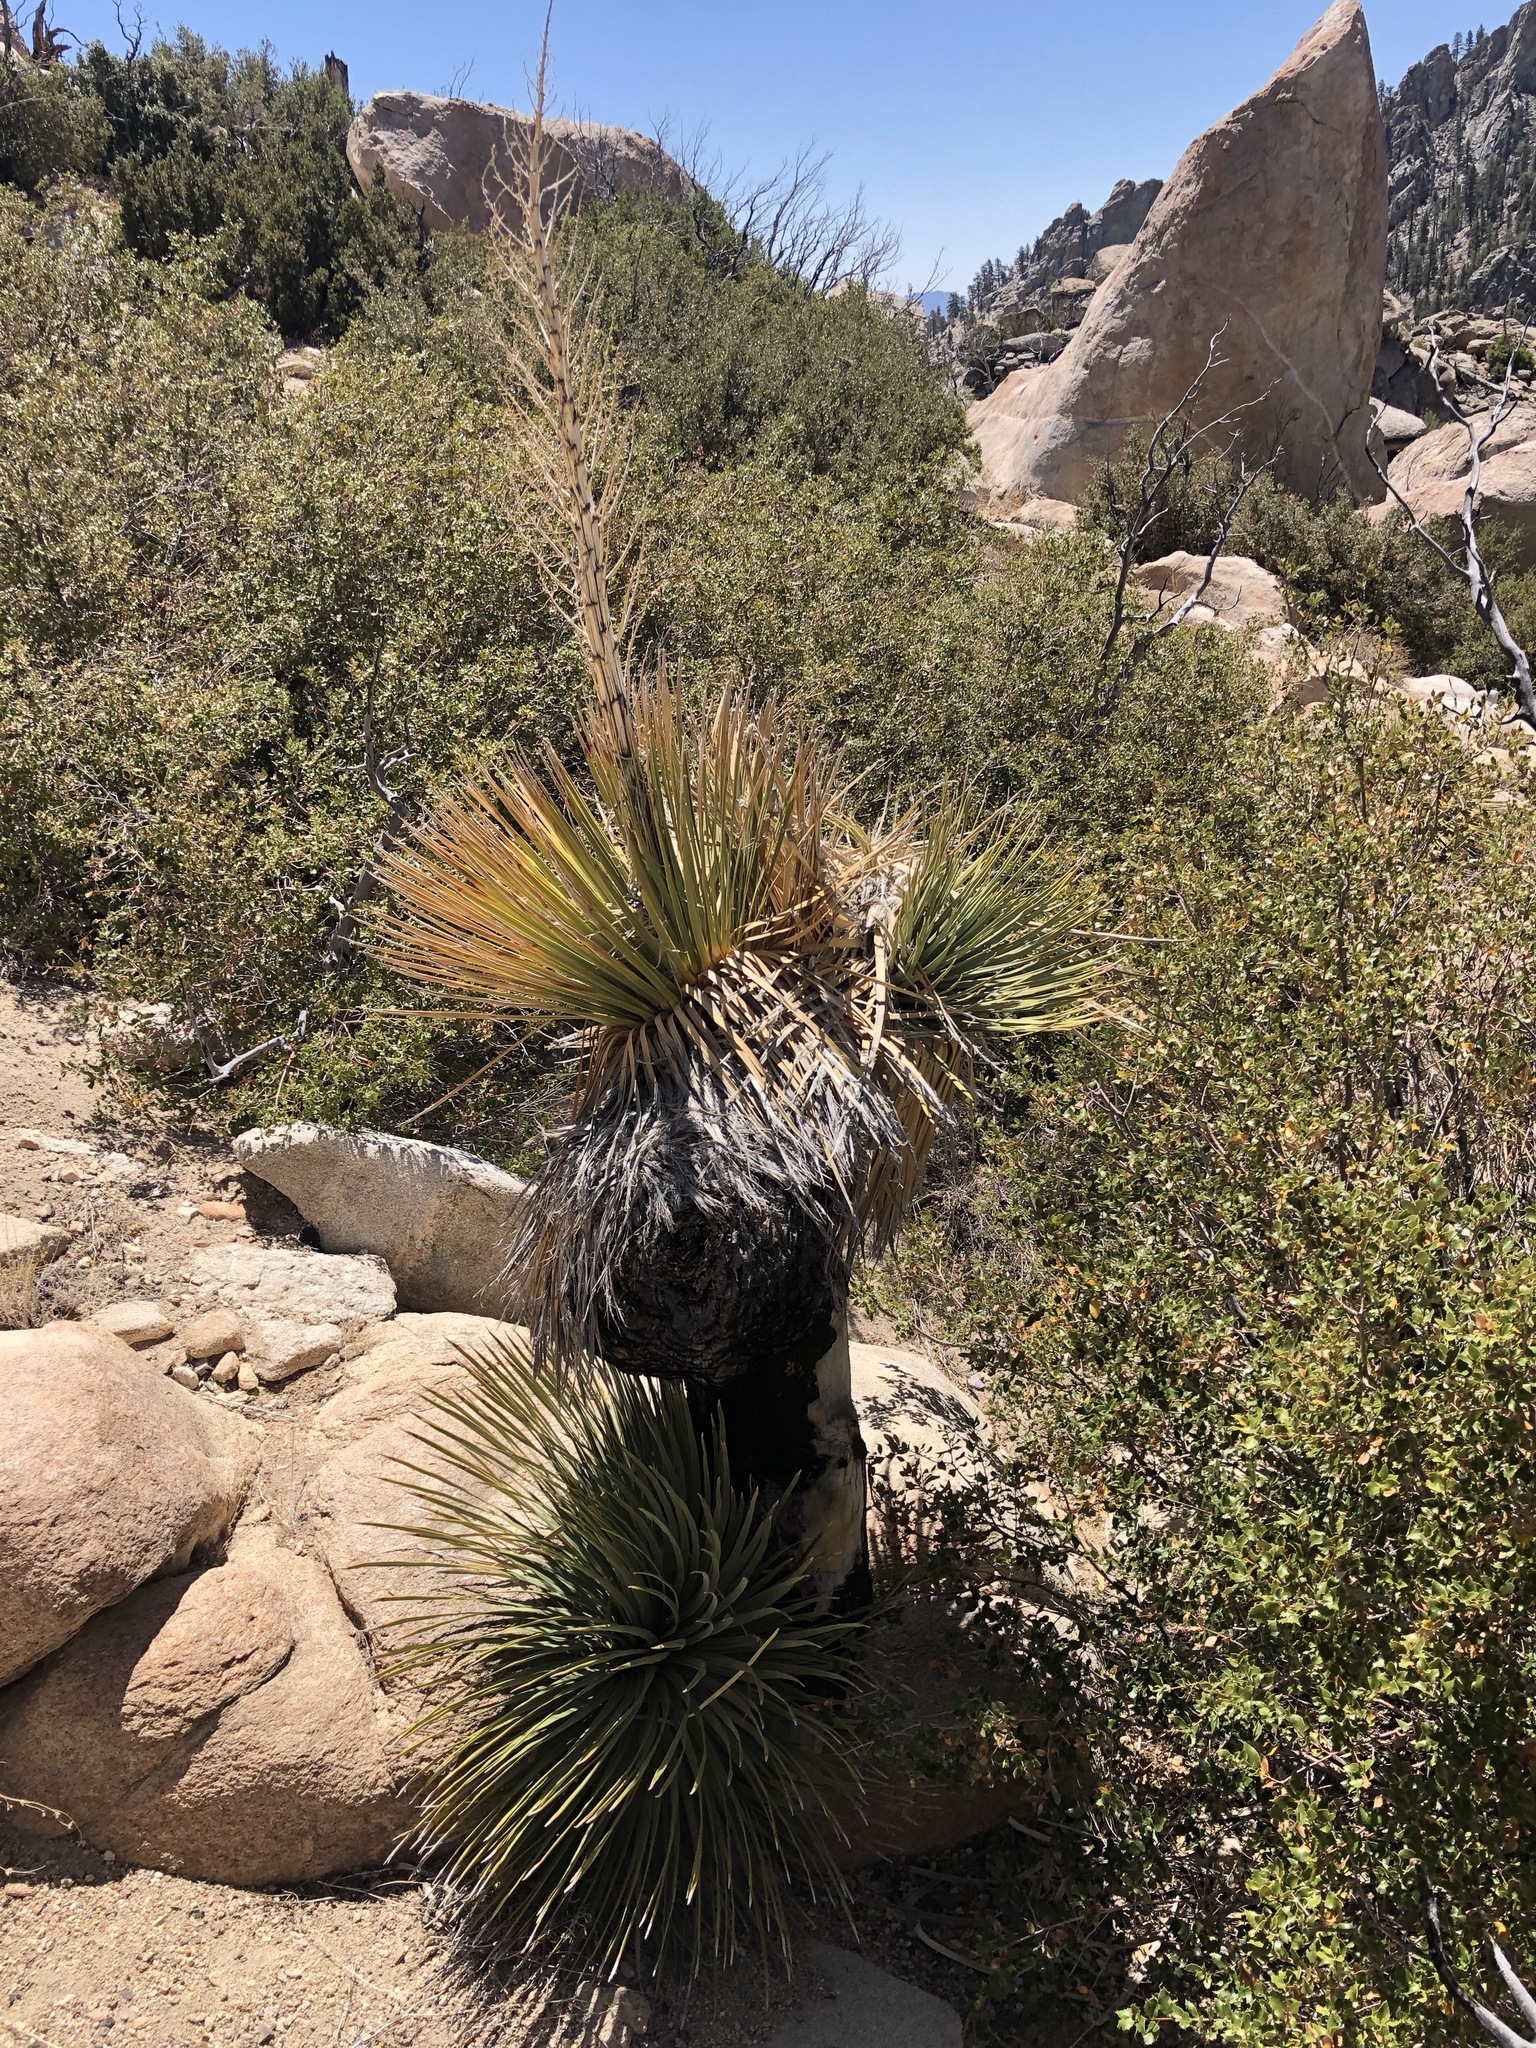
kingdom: Plantae
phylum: Tracheophyta
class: Liliopsida
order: Asparagales
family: Asparagaceae
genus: Nolina
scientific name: Nolina parryi
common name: Parry nolina
